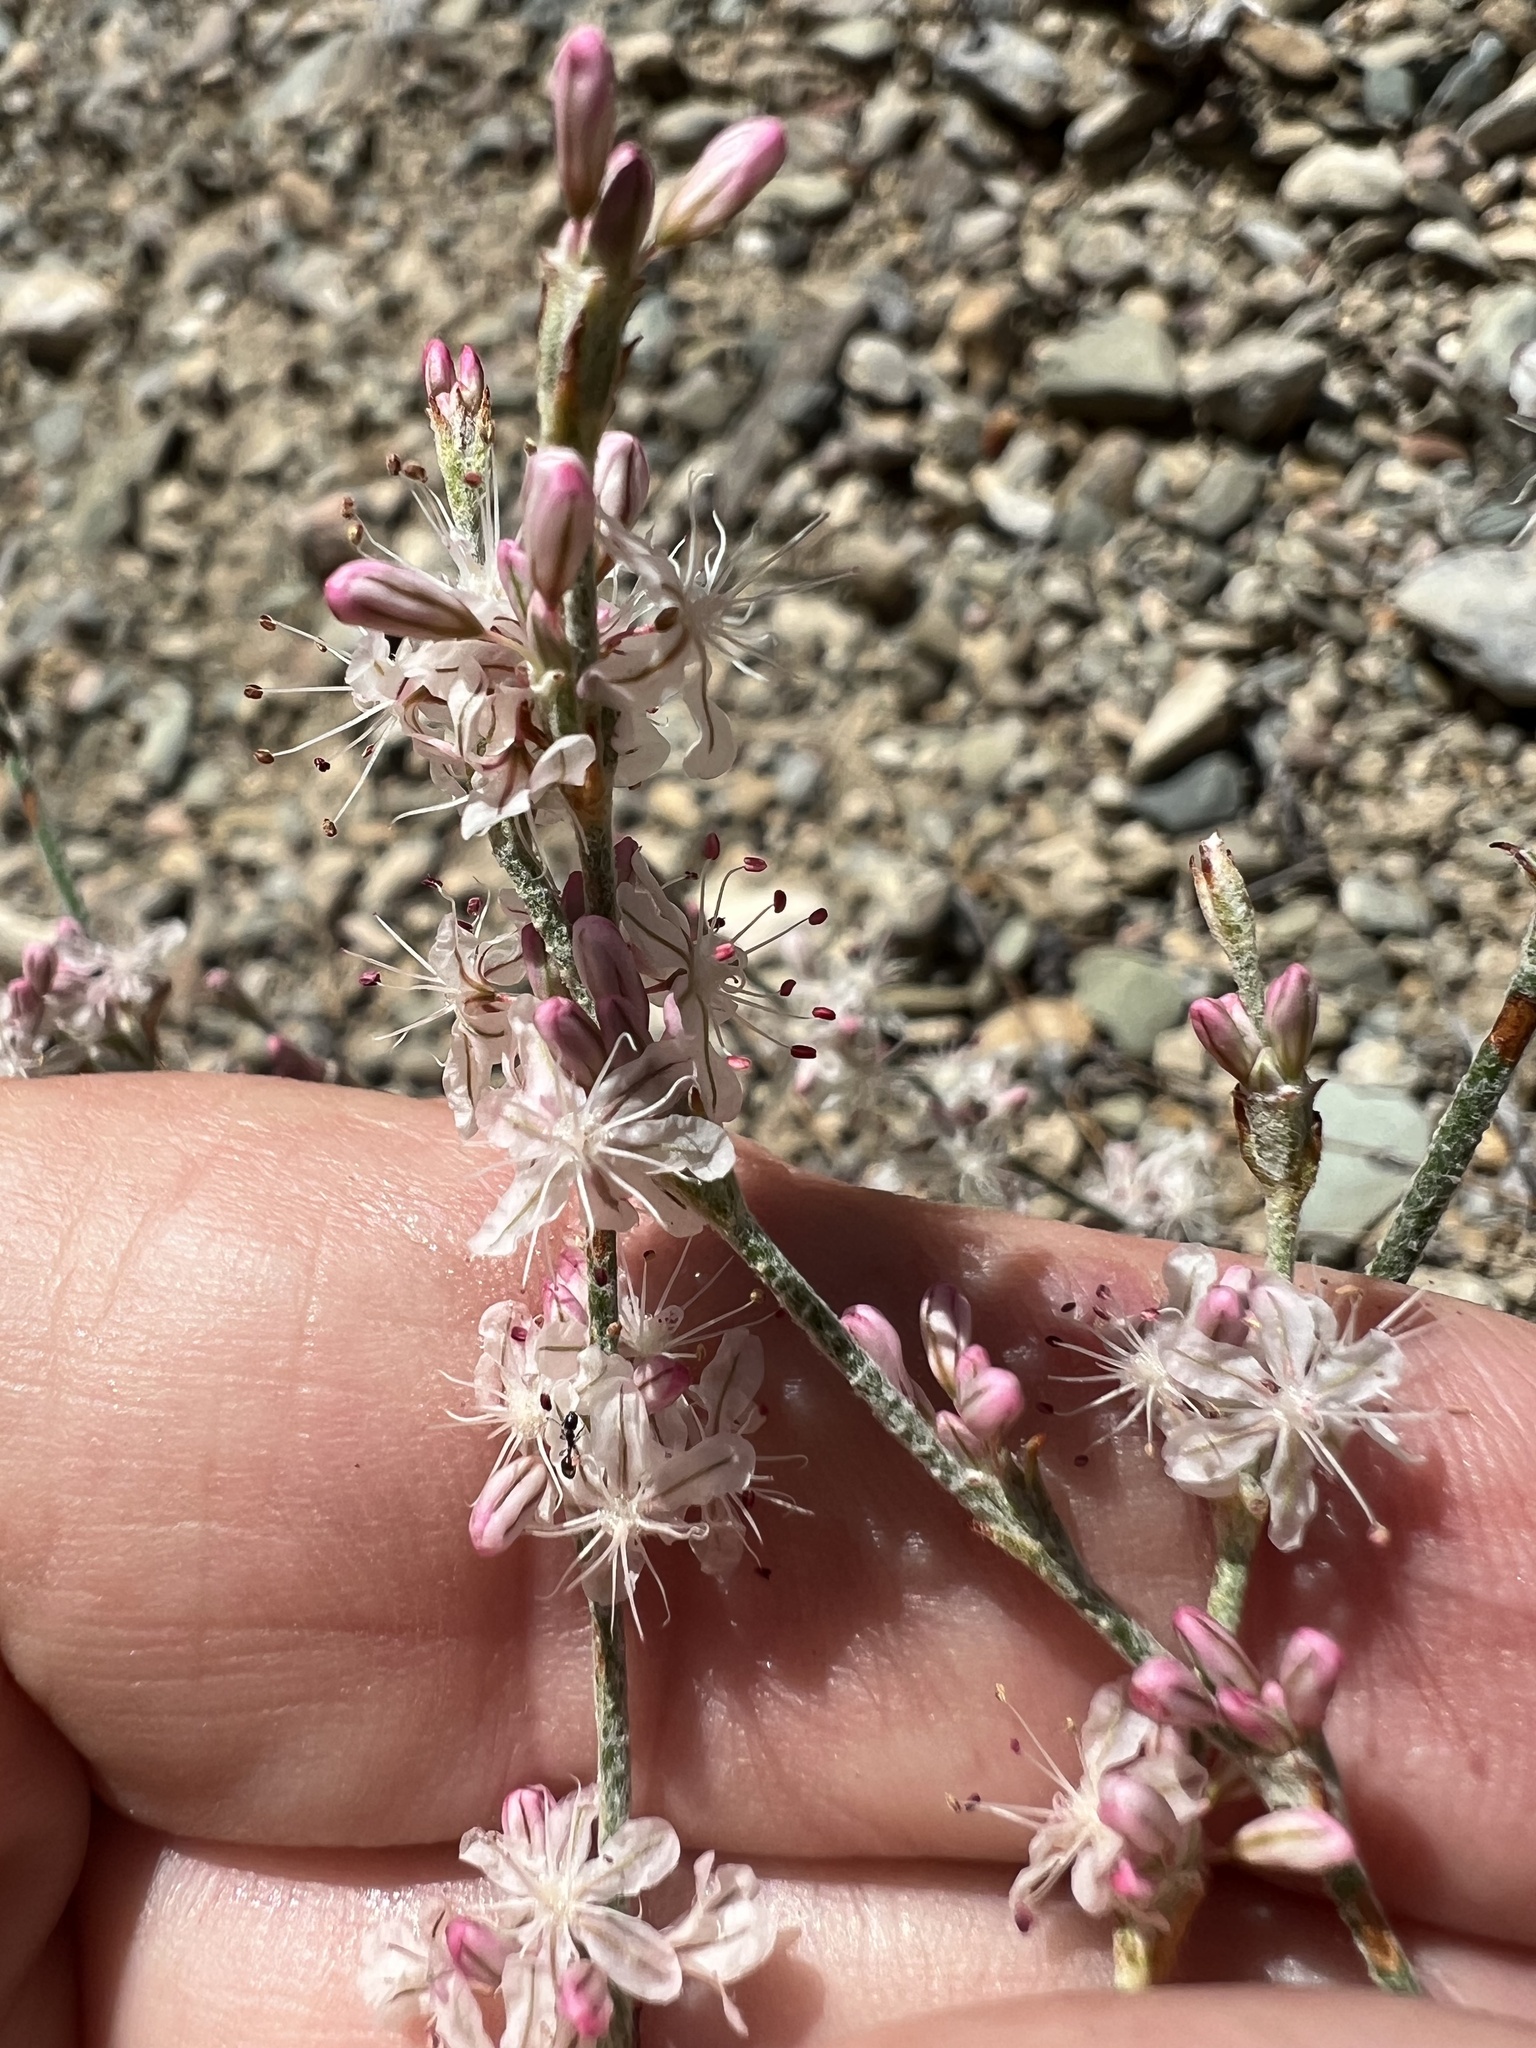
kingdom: Plantae
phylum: Tracheophyta
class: Magnoliopsida
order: Caryophyllales
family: Polygonaceae
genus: Eriogonum
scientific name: Eriogonum panamintense
